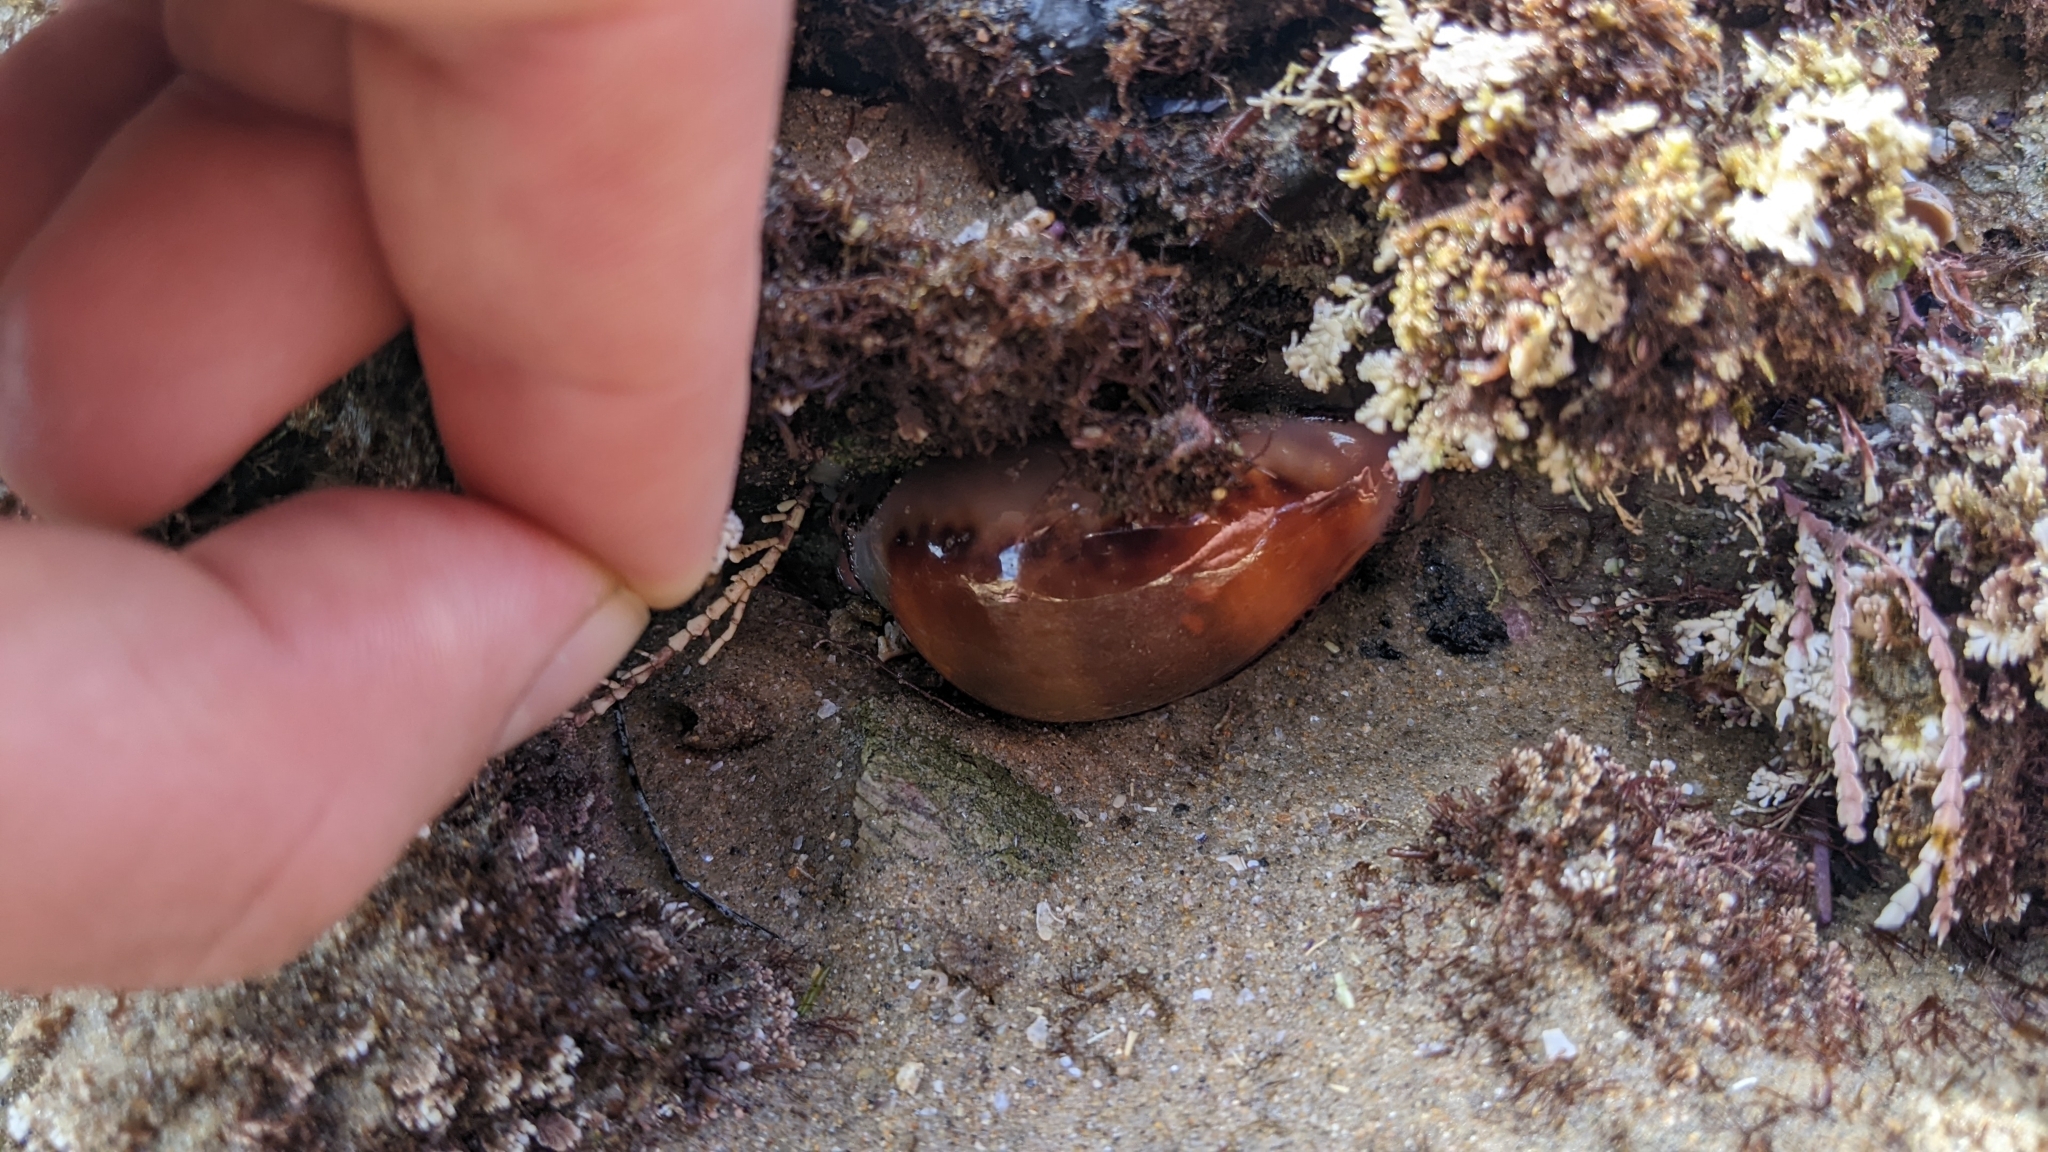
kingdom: Animalia
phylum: Mollusca
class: Gastropoda
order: Littorinimorpha
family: Cypraeidae
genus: Neobernaya
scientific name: Neobernaya spadicea
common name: Chestnut cowrie
